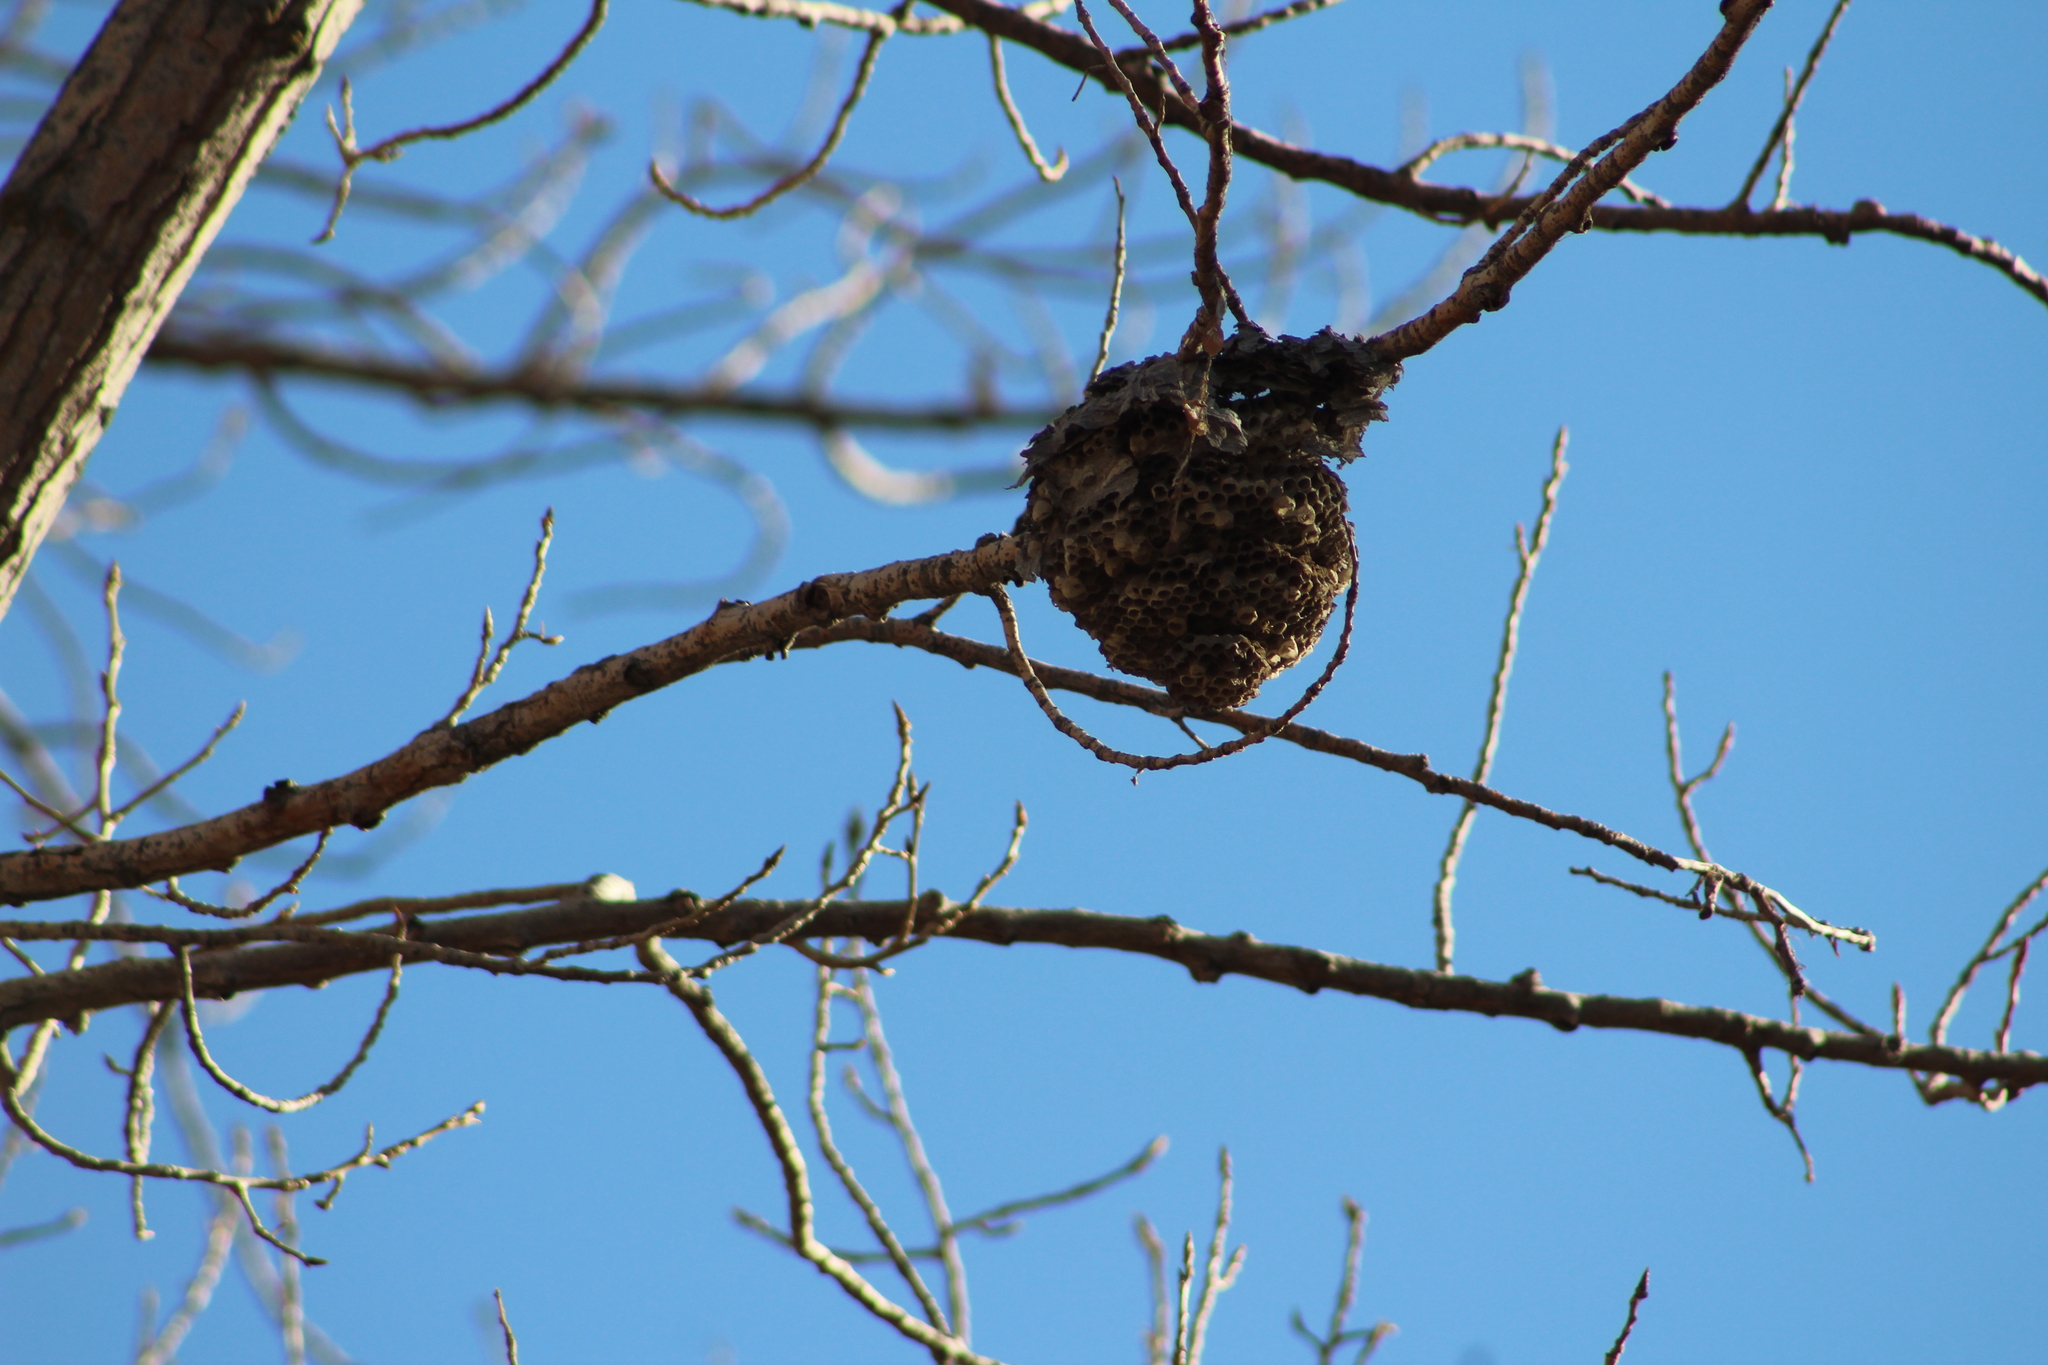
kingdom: Animalia
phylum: Arthropoda
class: Insecta
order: Hymenoptera
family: Vespidae
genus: Dolichovespula
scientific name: Dolichovespula
